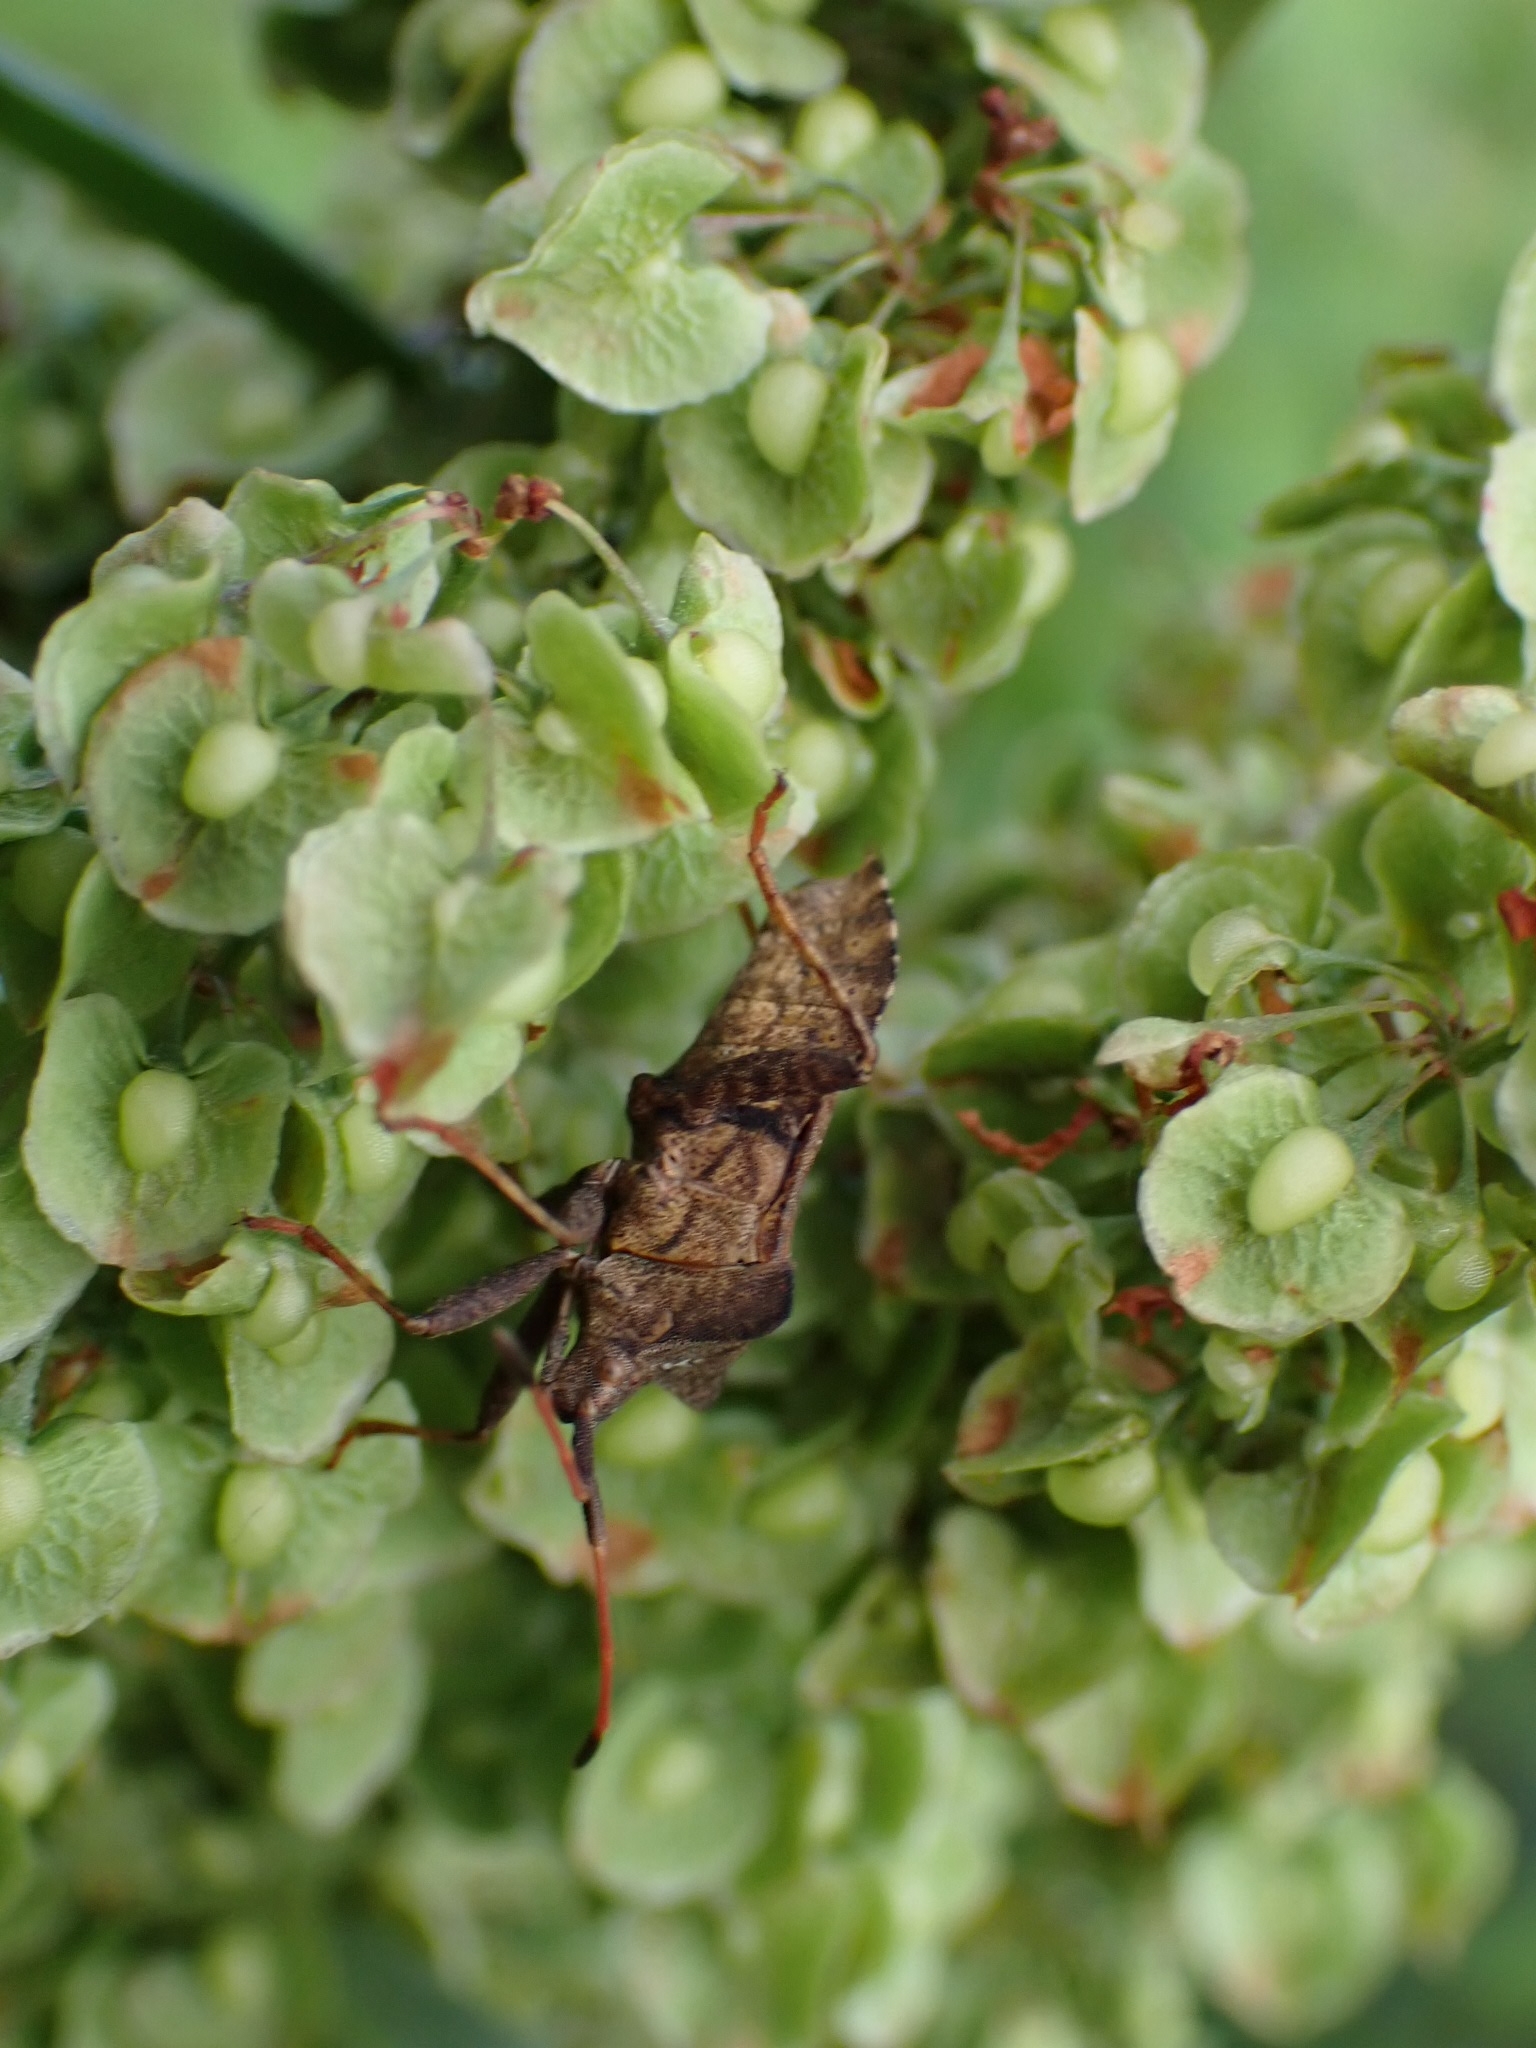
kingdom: Animalia
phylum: Arthropoda
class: Insecta
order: Hemiptera
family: Coreidae
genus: Coreus
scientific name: Coreus marginatus
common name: Dock bug
